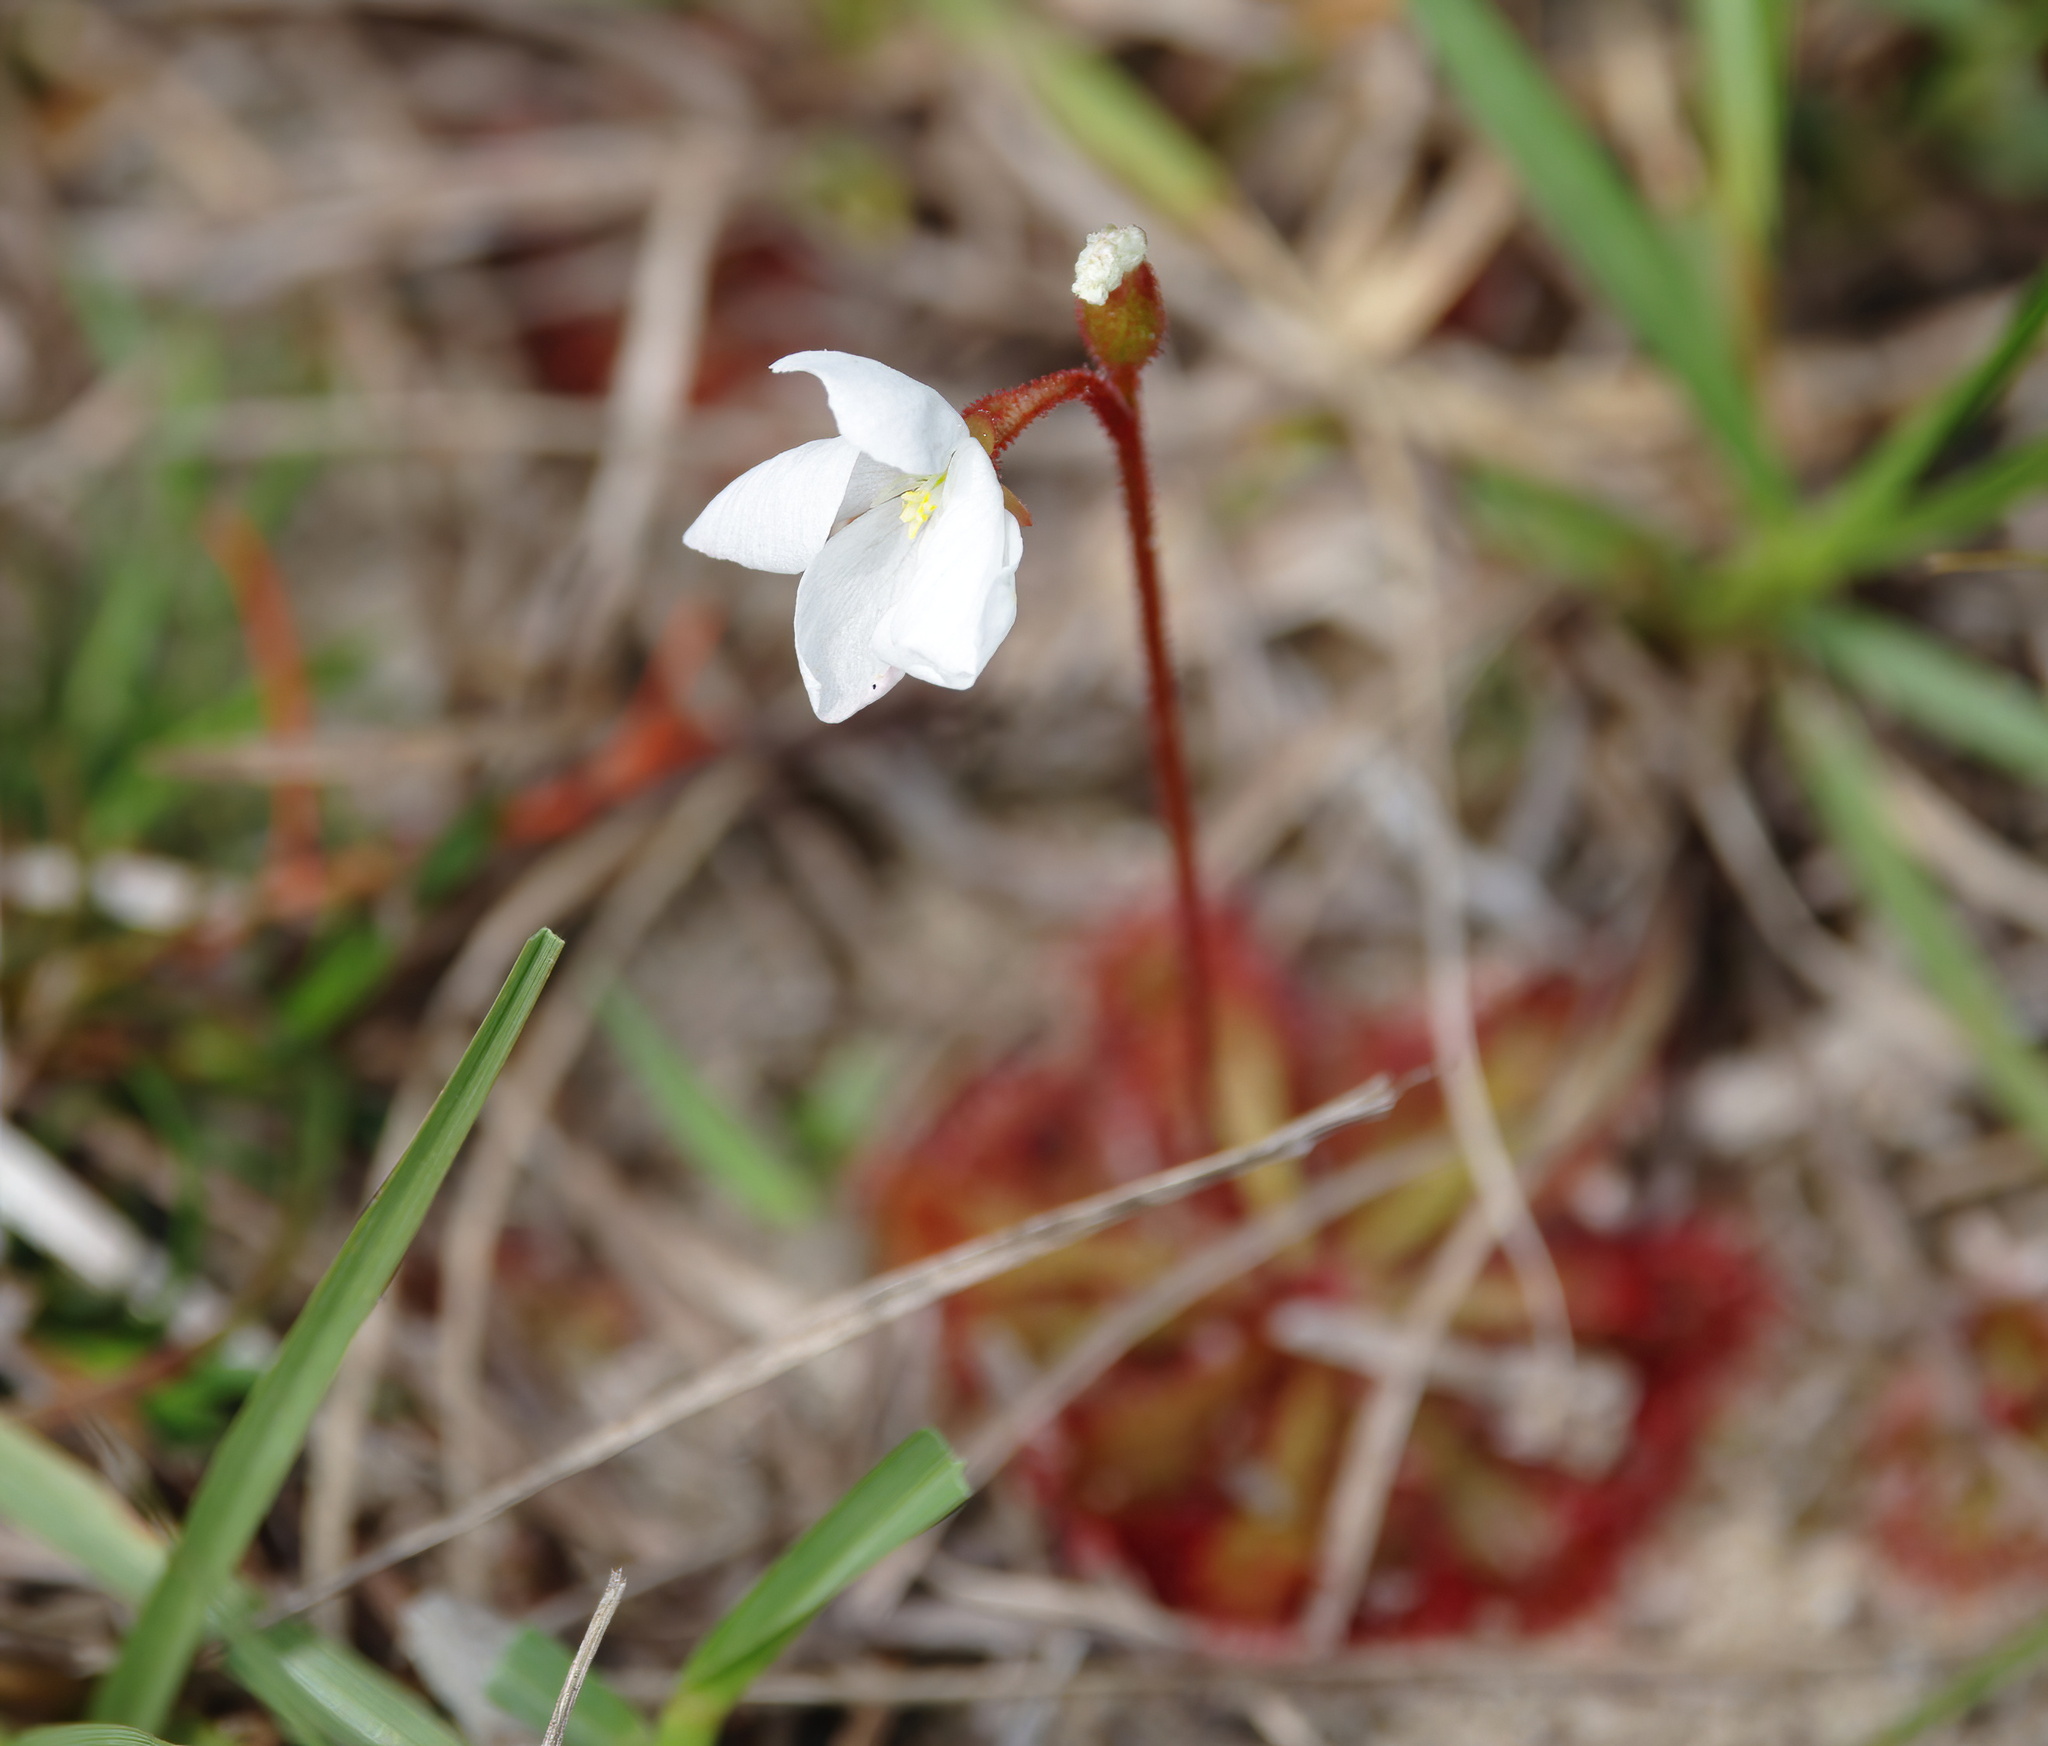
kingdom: Plantae
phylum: Tracheophyta
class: Magnoliopsida
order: Caryophyllales
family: Droseraceae
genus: Drosera
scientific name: Drosera brevifolia
